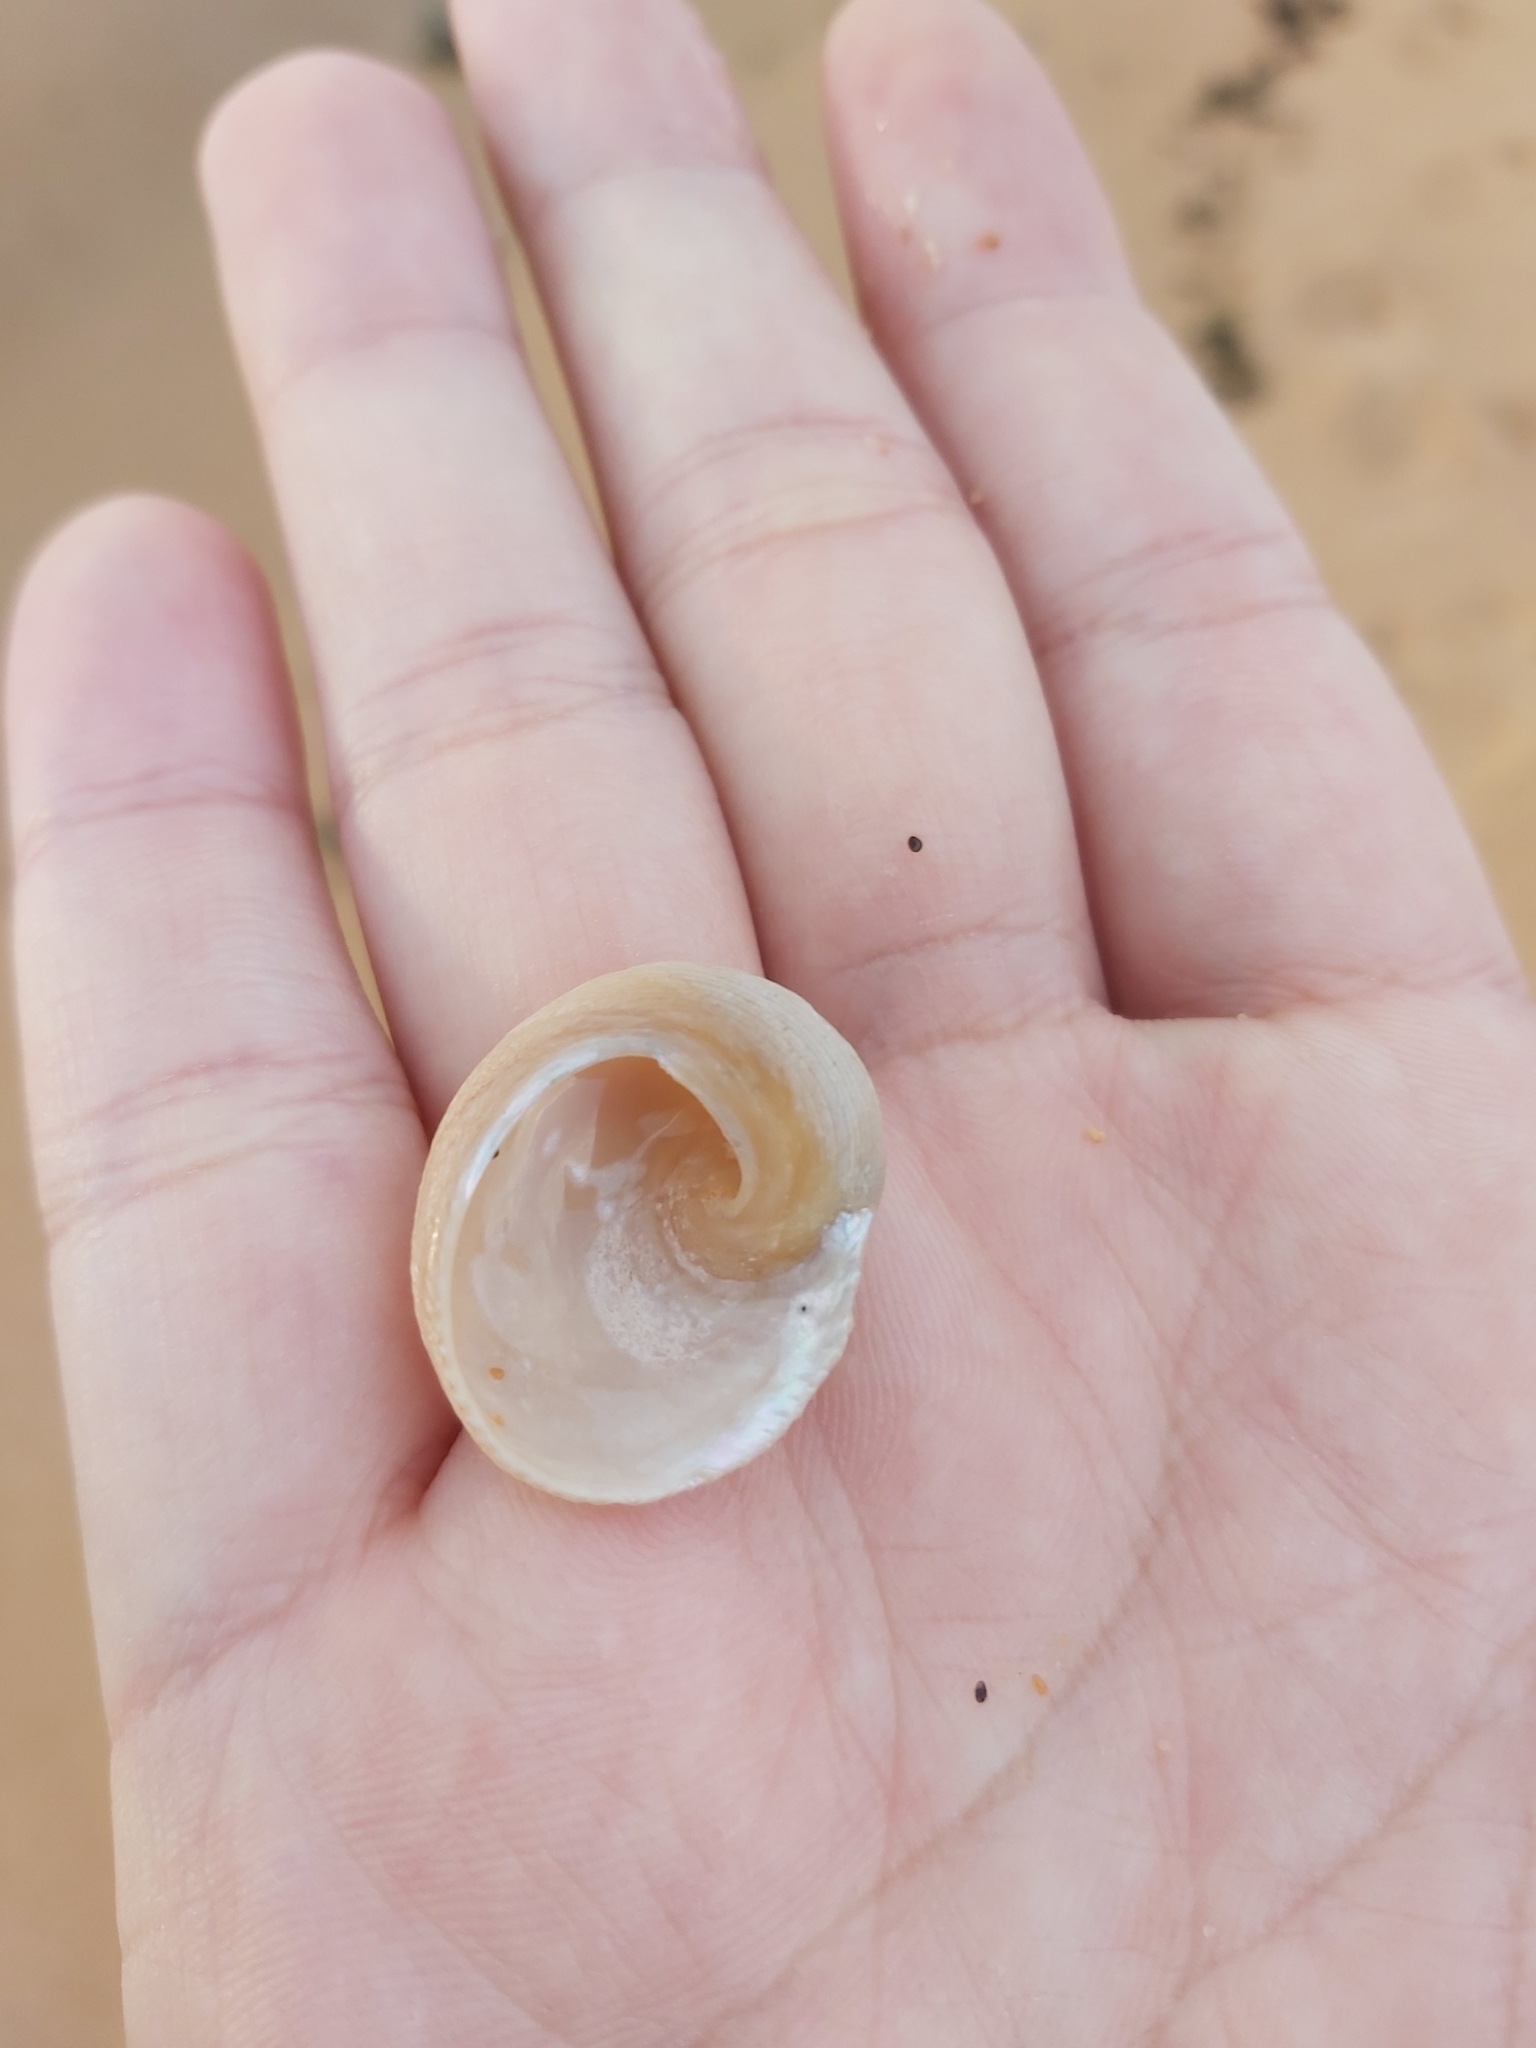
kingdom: Animalia
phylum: Mollusca
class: Gastropoda
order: Seguenziida
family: Chilodontaidae
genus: Granata
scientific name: Granata imbricata
